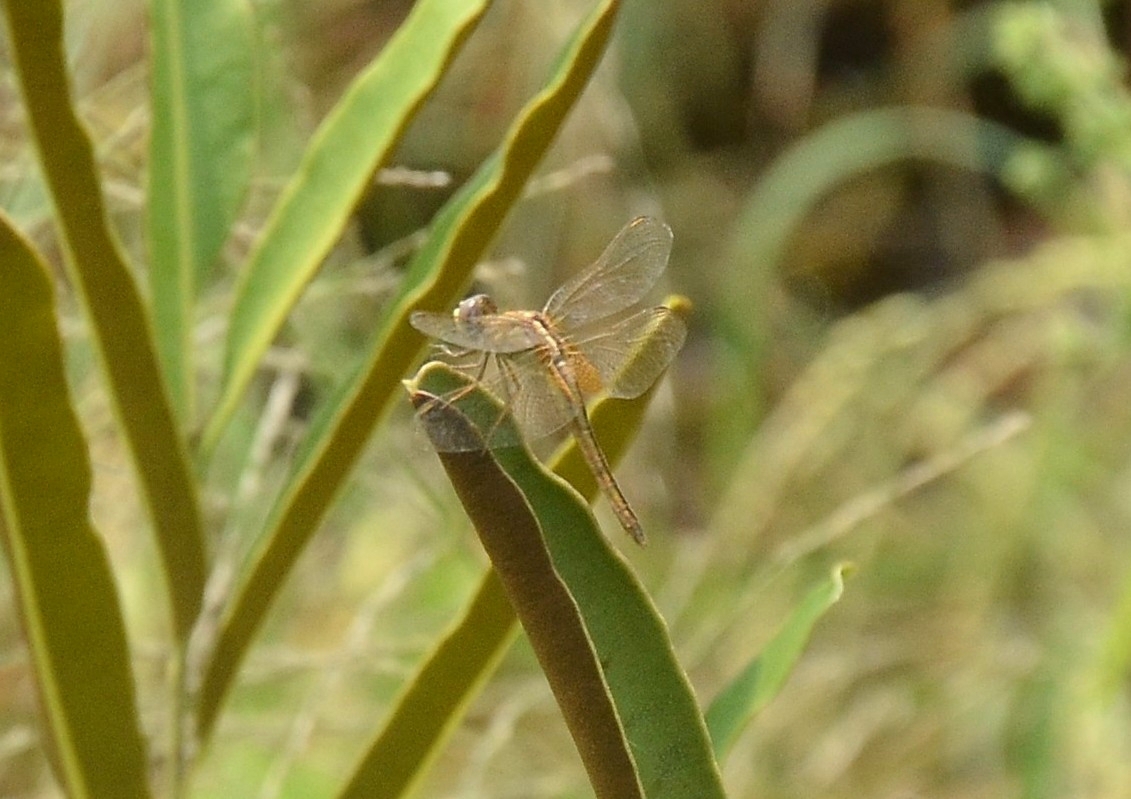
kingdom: Animalia
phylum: Arthropoda
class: Insecta
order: Odonata
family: Libellulidae
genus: Crocothemis
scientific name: Crocothemis servilia
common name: Scarlet skimmer
